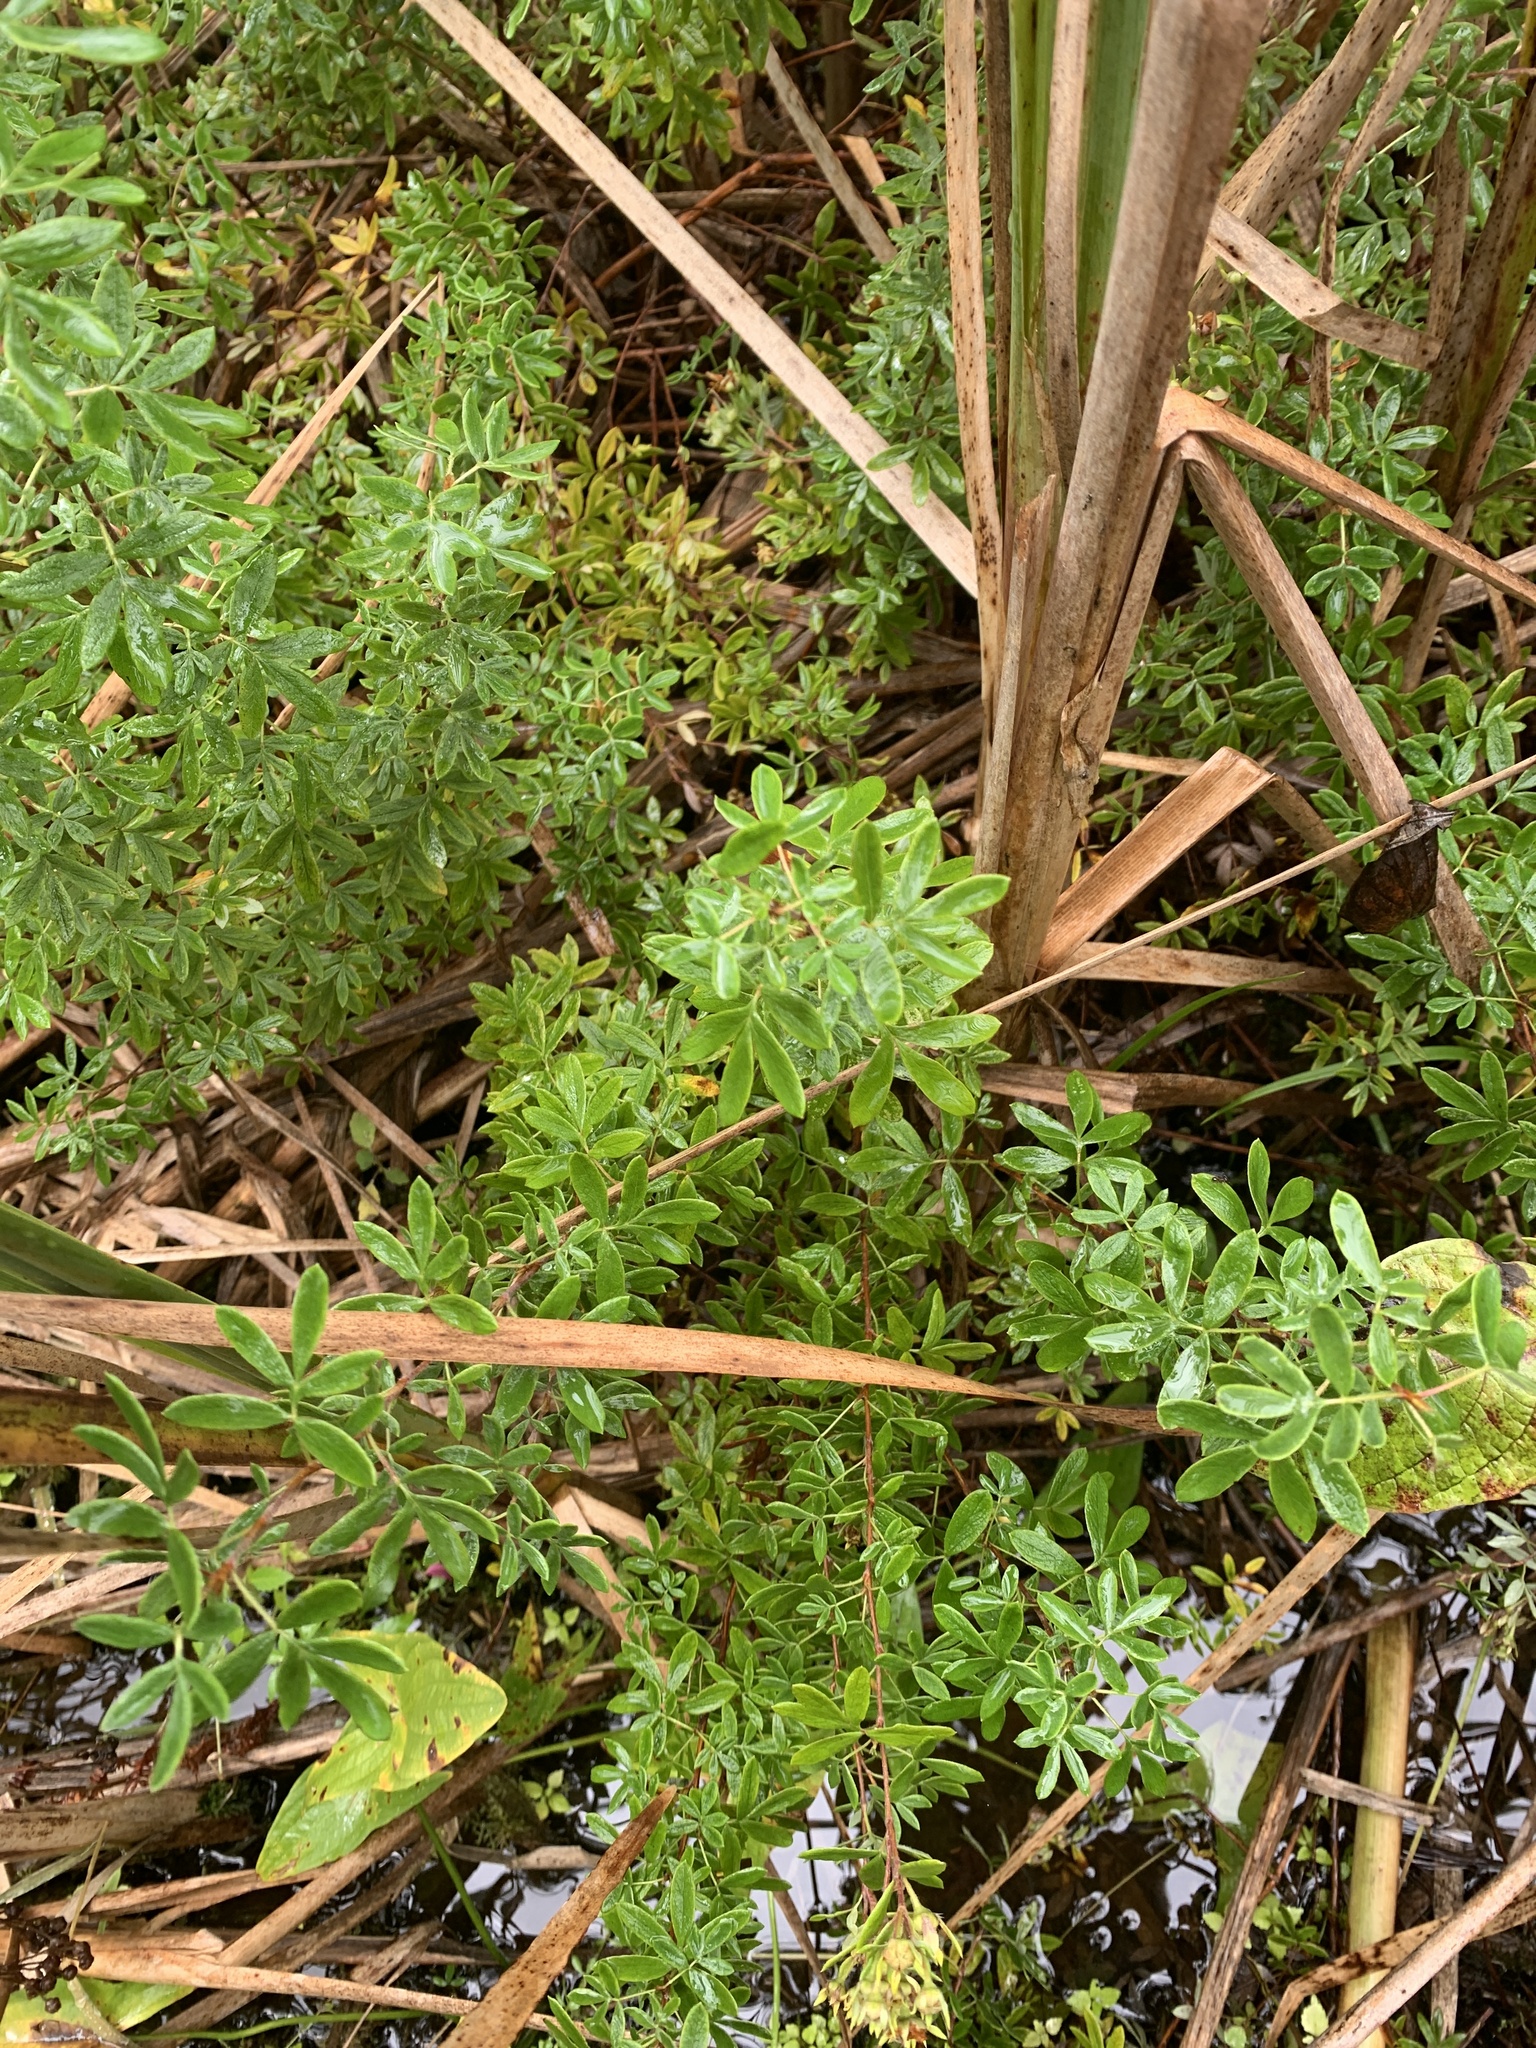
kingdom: Plantae
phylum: Tracheophyta
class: Magnoliopsida
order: Rosales
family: Rosaceae
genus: Dasiphora
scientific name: Dasiphora fruticosa
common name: Shrubby cinquefoil
